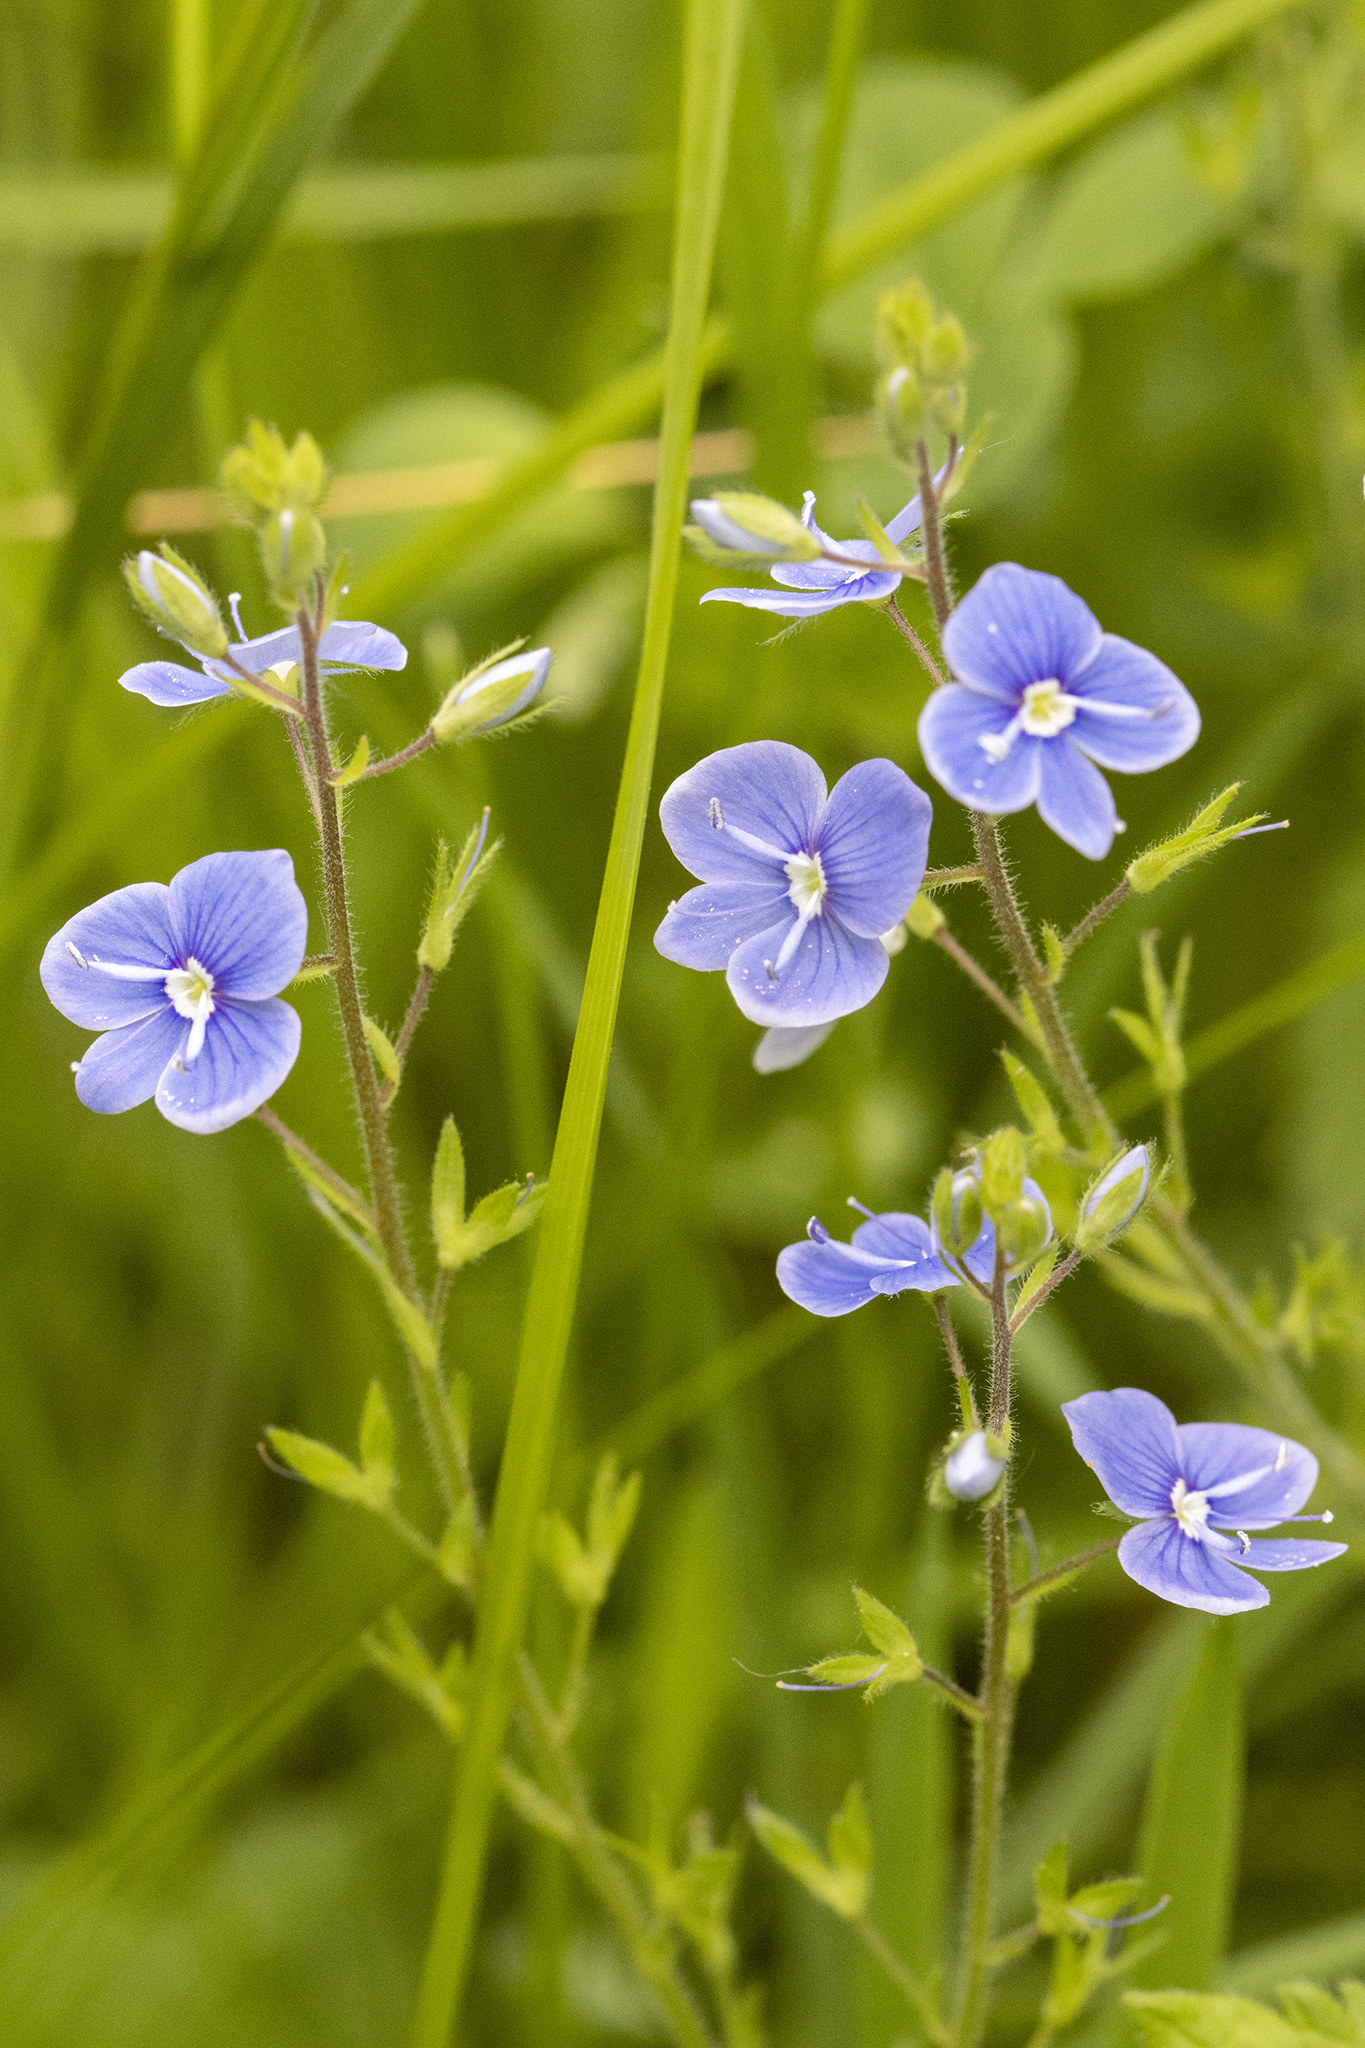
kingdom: Plantae
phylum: Tracheophyta
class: Magnoliopsida
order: Lamiales
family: Plantaginaceae
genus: Veronica
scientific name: Veronica chamaedrys
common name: Germander speedwell
